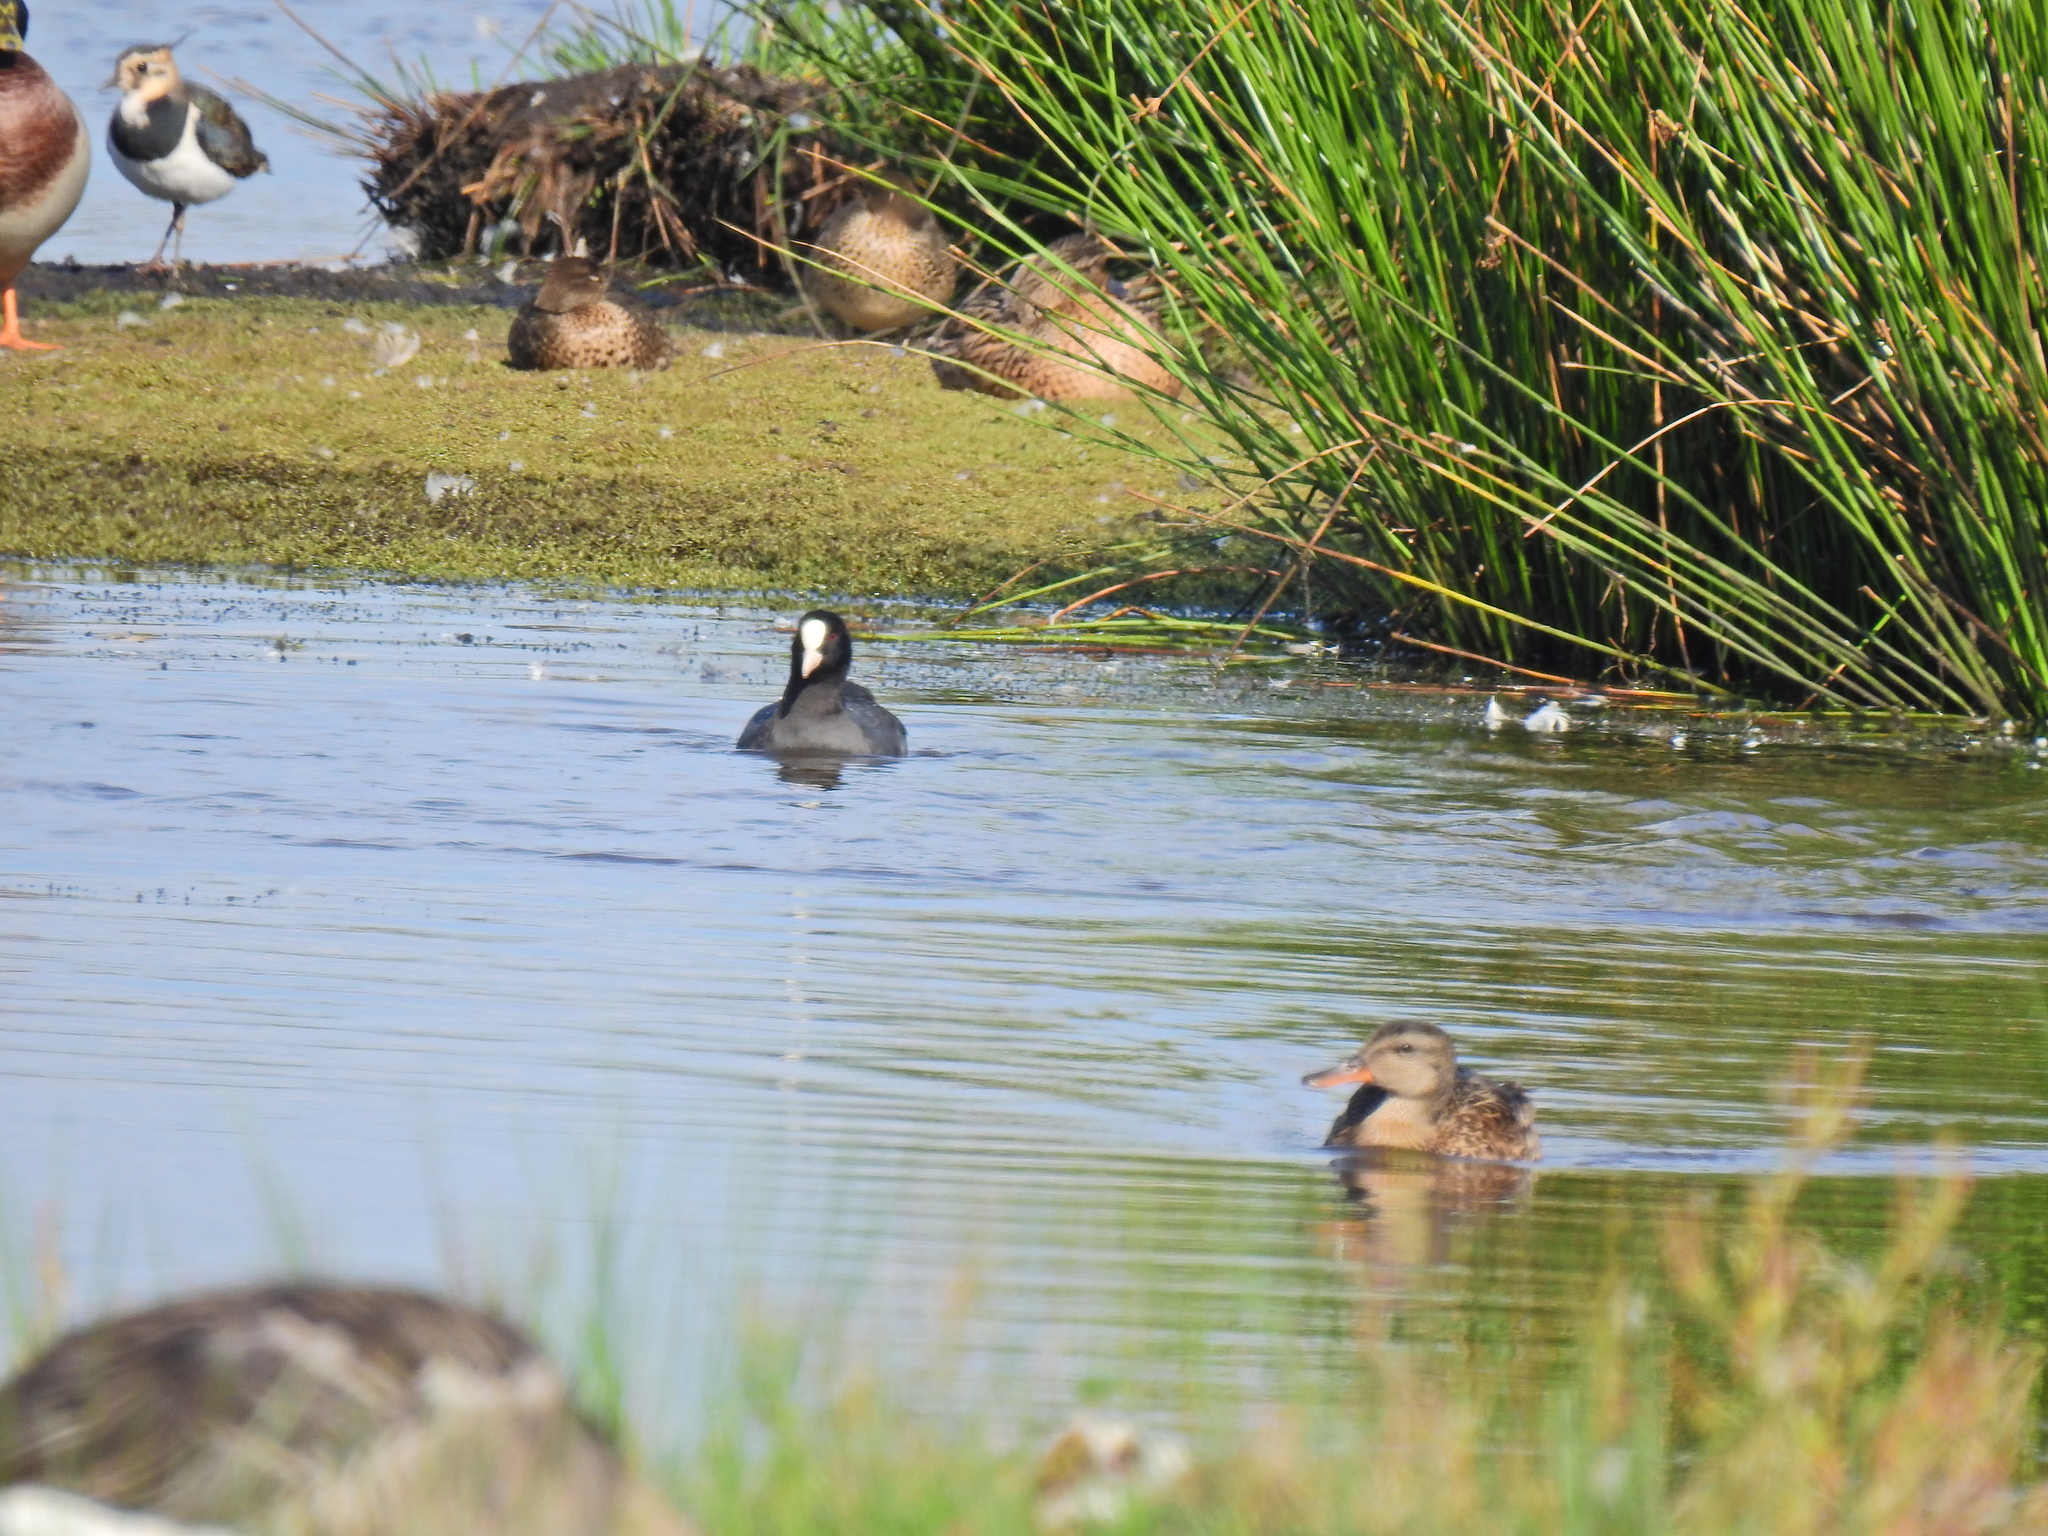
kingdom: Animalia
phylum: Chordata
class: Aves
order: Gruiformes
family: Rallidae
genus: Fulica
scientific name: Fulica atra
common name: Eurasian coot
